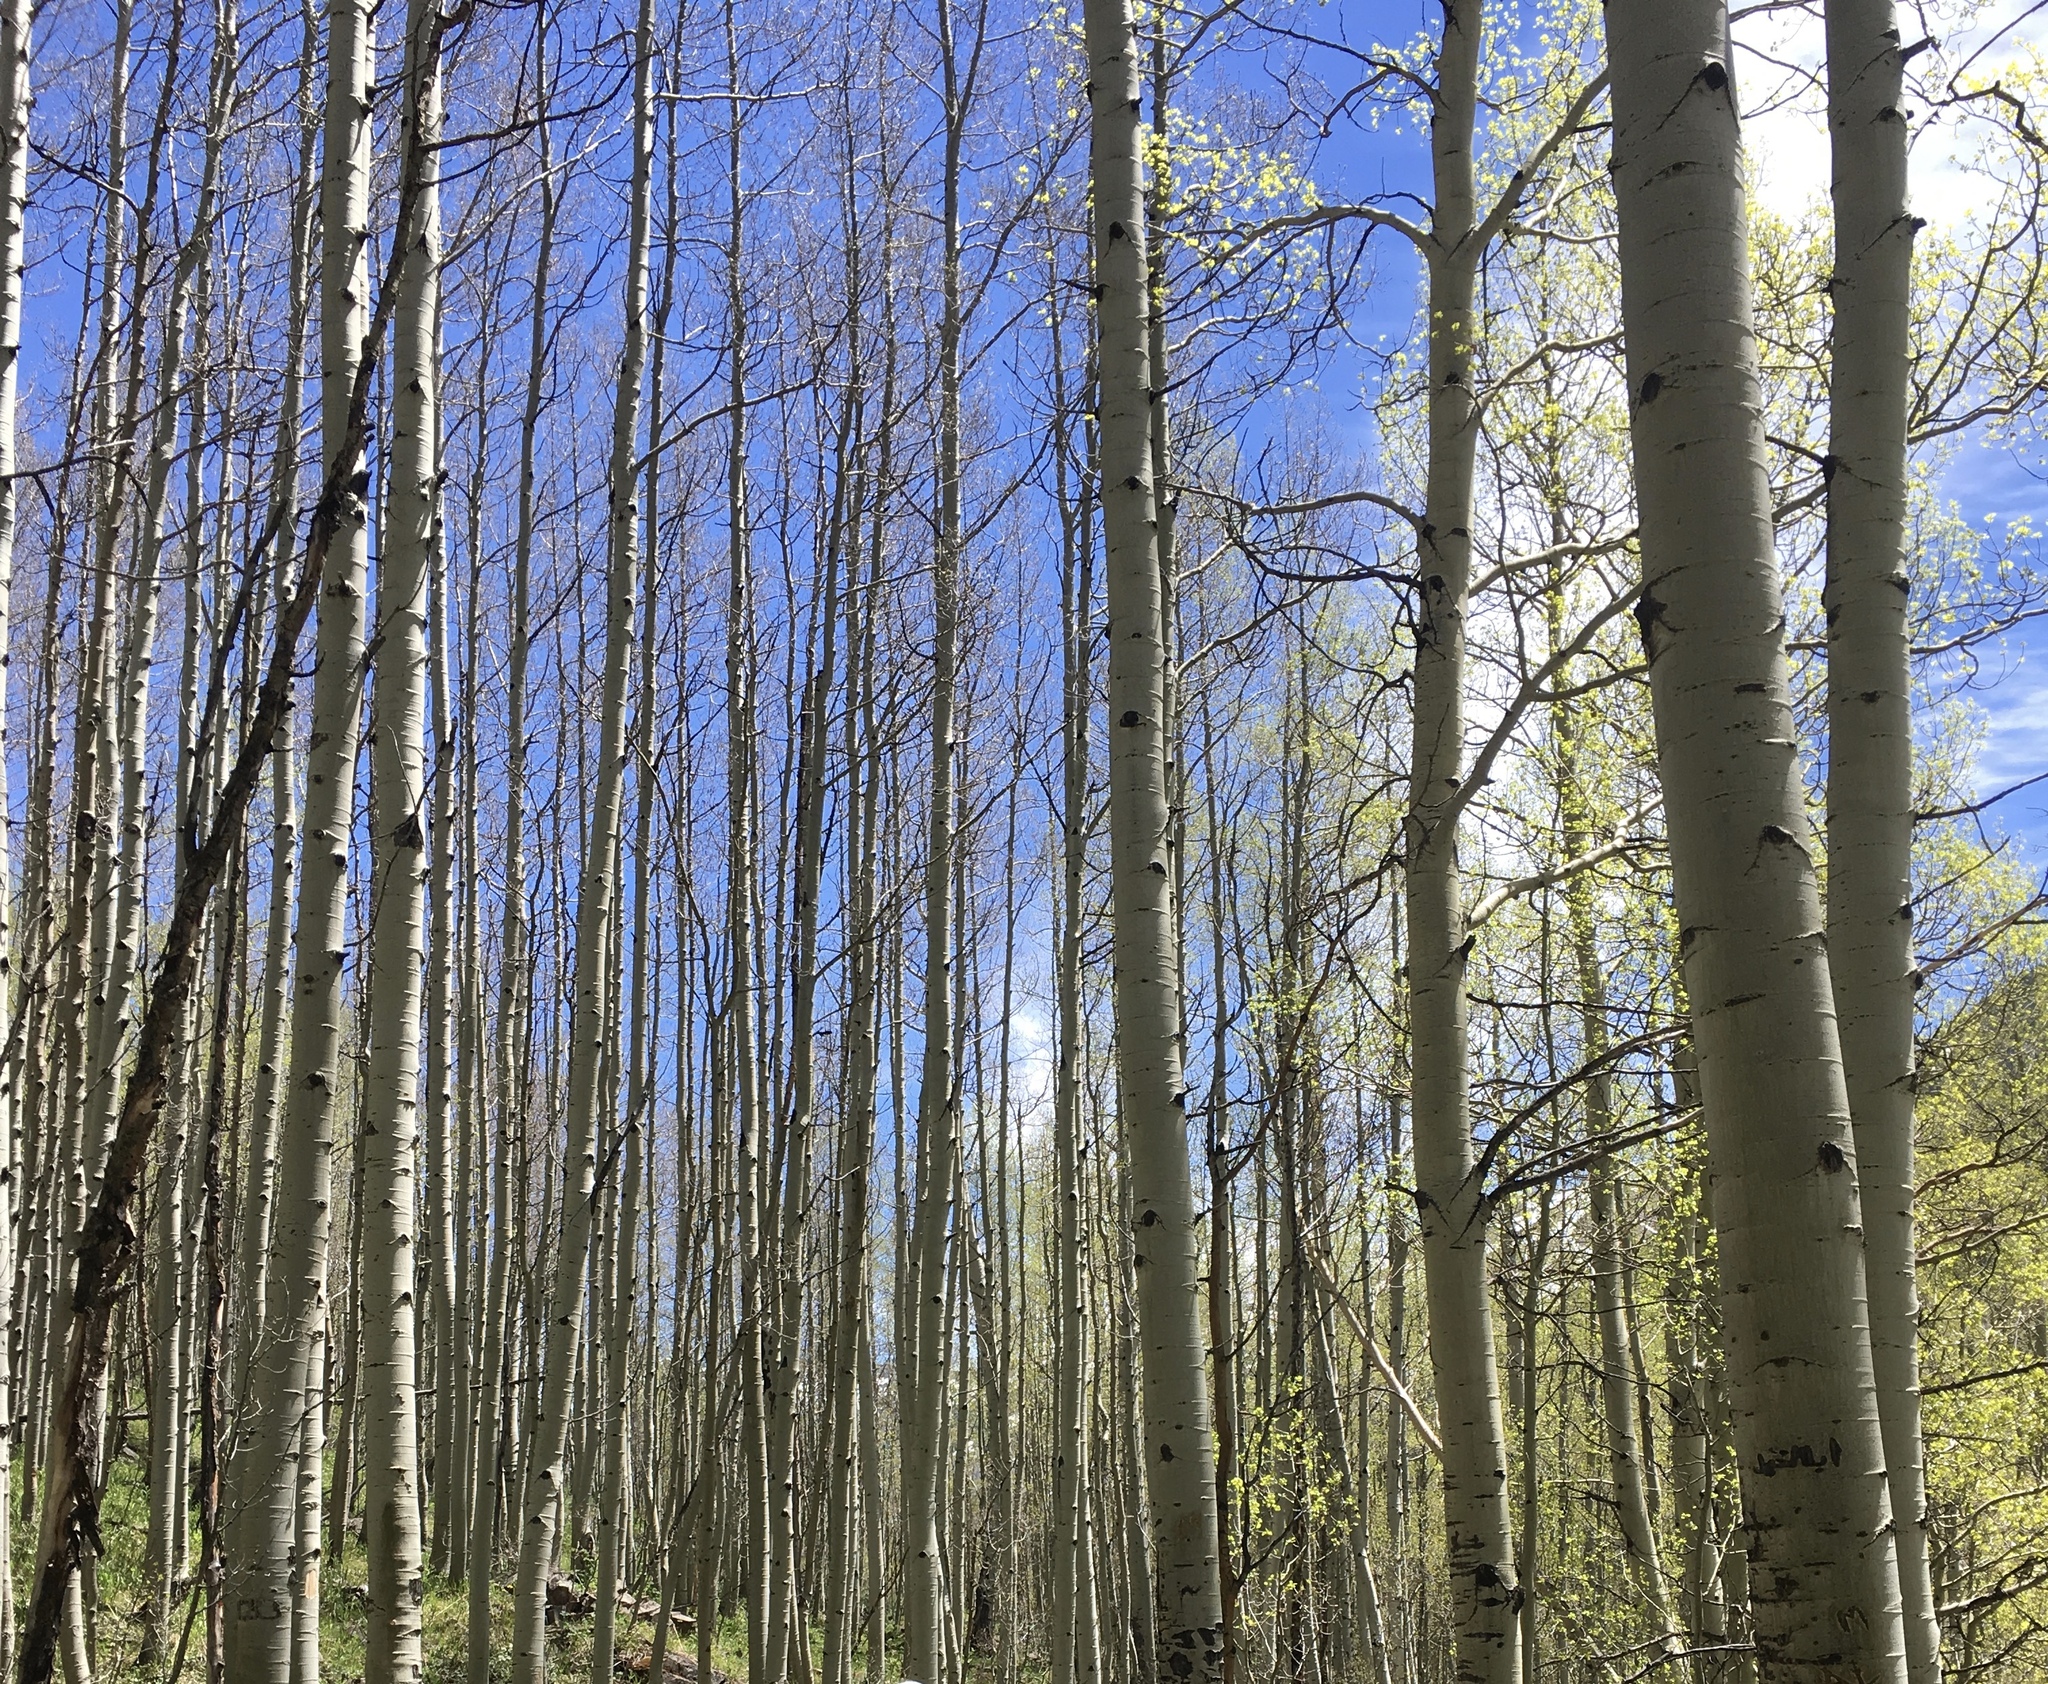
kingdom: Plantae
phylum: Tracheophyta
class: Magnoliopsida
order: Malpighiales
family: Salicaceae
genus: Populus
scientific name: Populus tremuloides
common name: Quaking aspen
